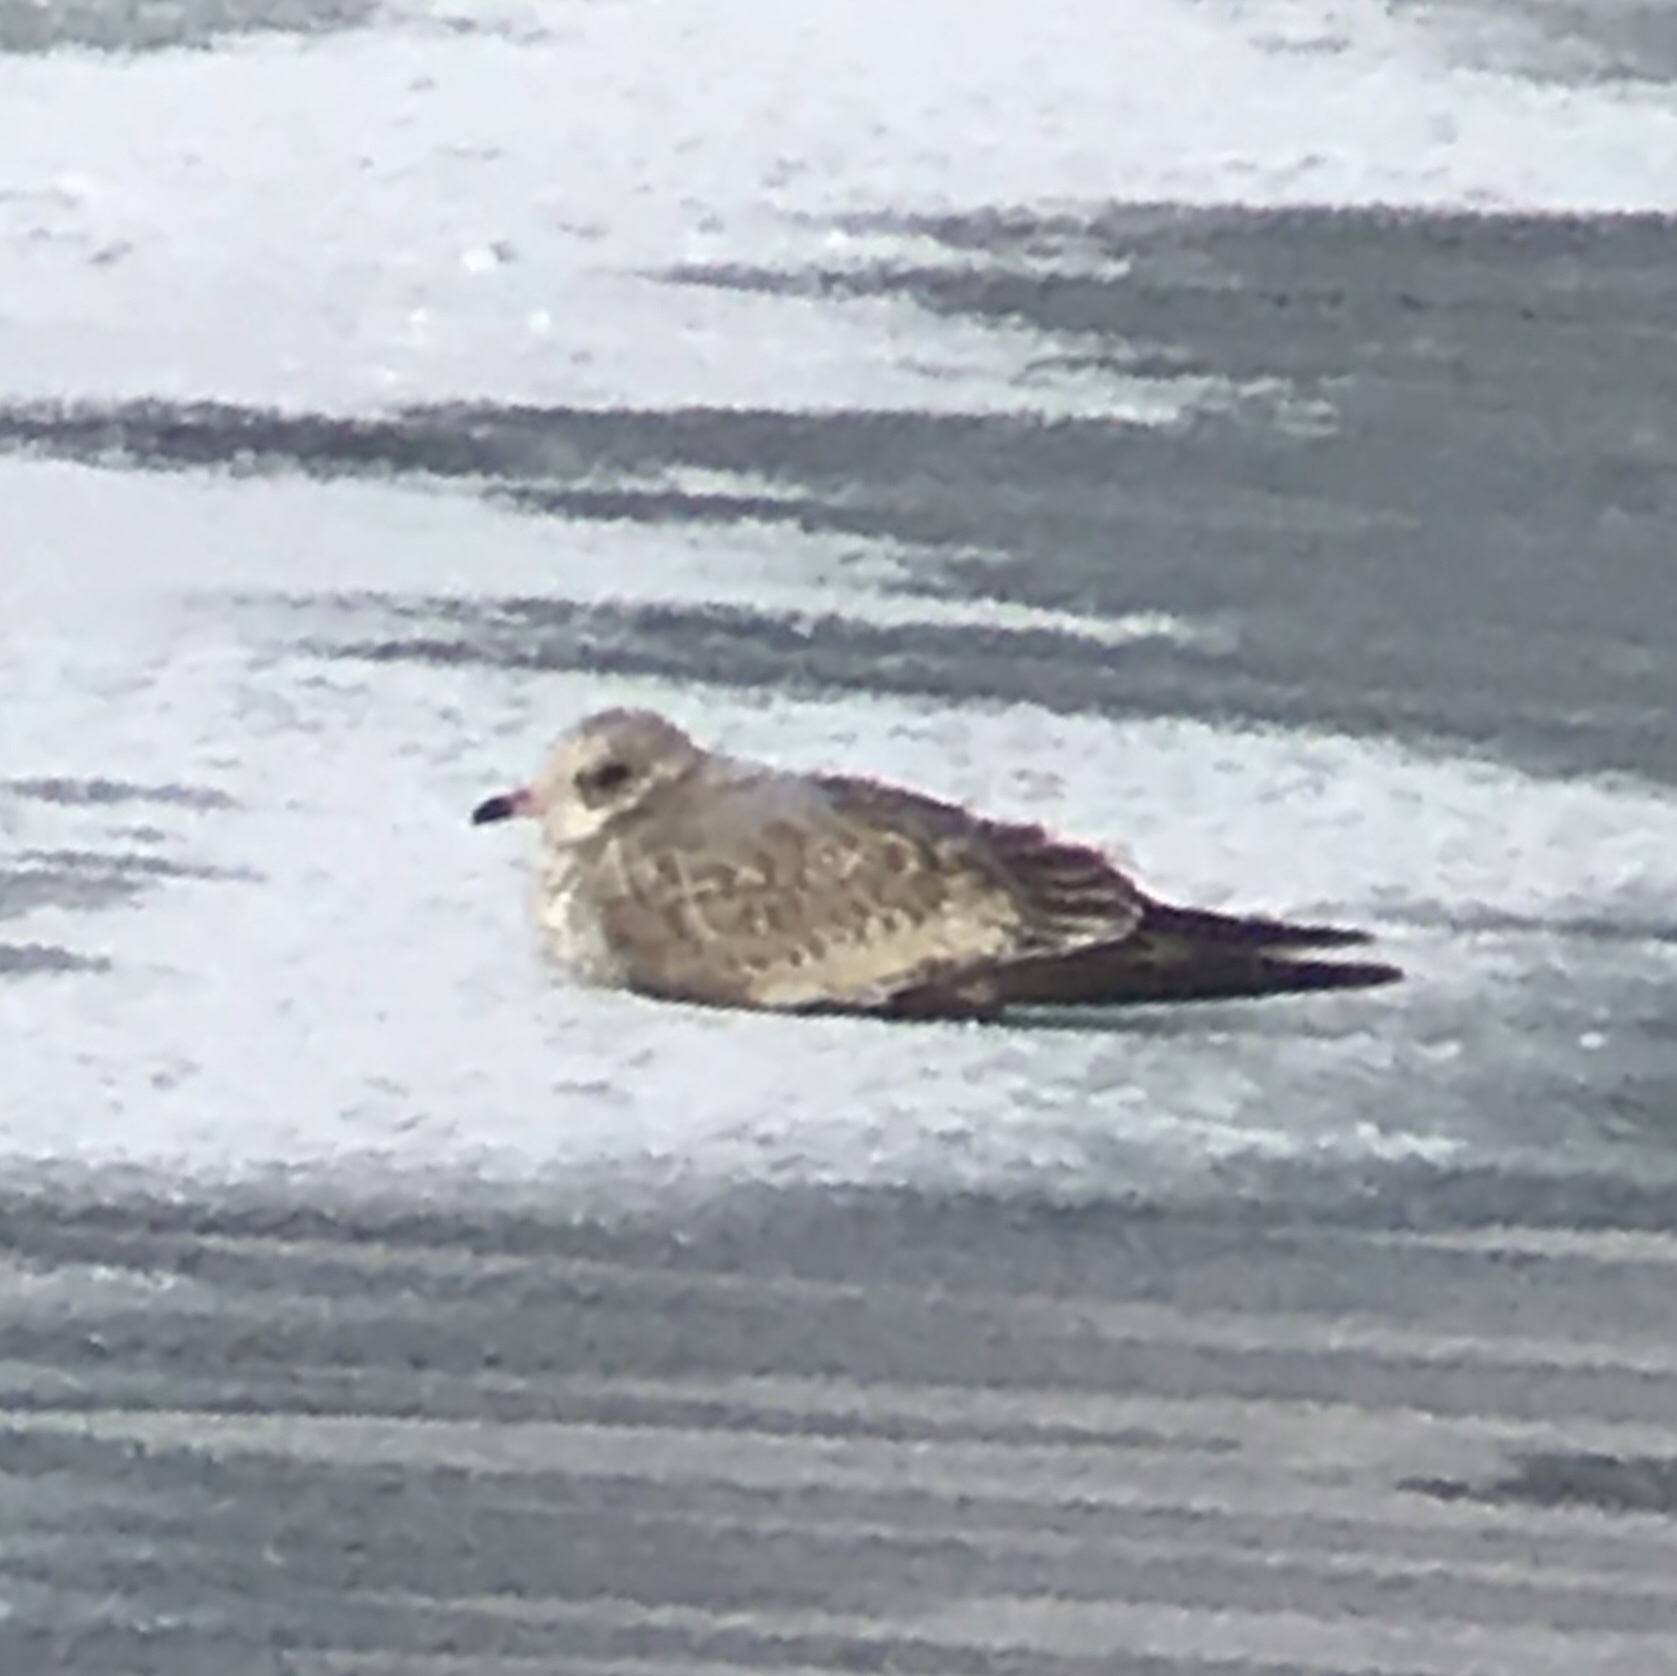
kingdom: Animalia
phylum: Chordata
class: Aves
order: Charadriiformes
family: Laridae
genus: Larus
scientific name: Larus brachyrhynchus
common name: Short-billed gull
